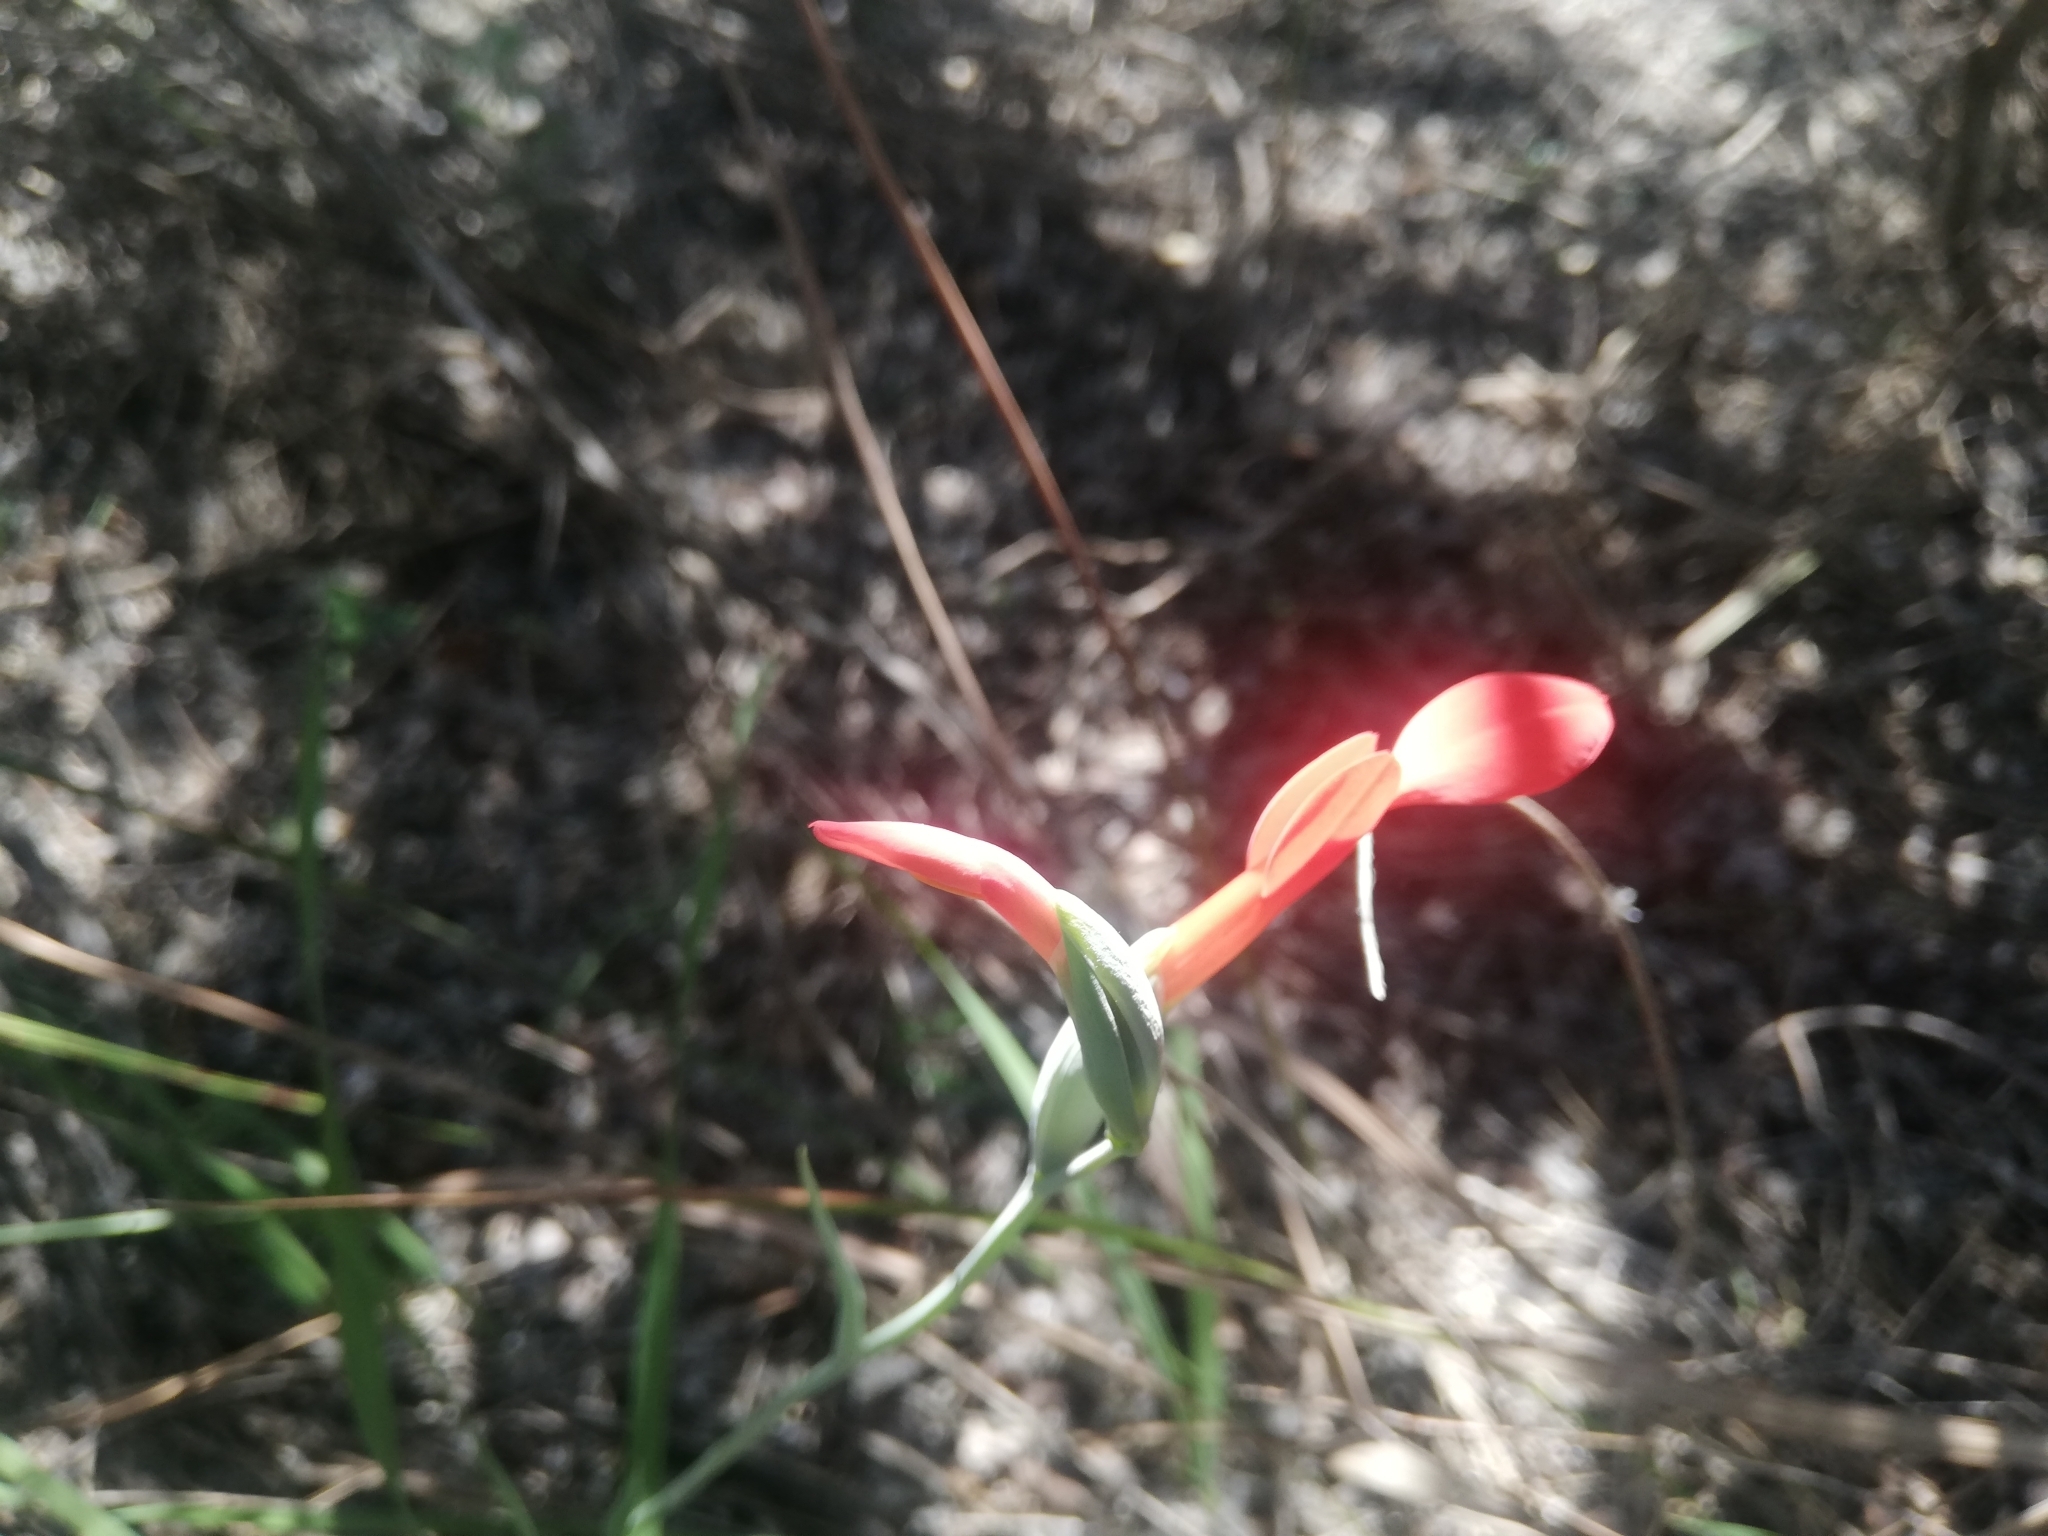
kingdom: Plantae
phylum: Tracheophyta
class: Liliopsida
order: Asparagales
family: Iridaceae
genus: Gladiolus
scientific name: Gladiolus cunonius
